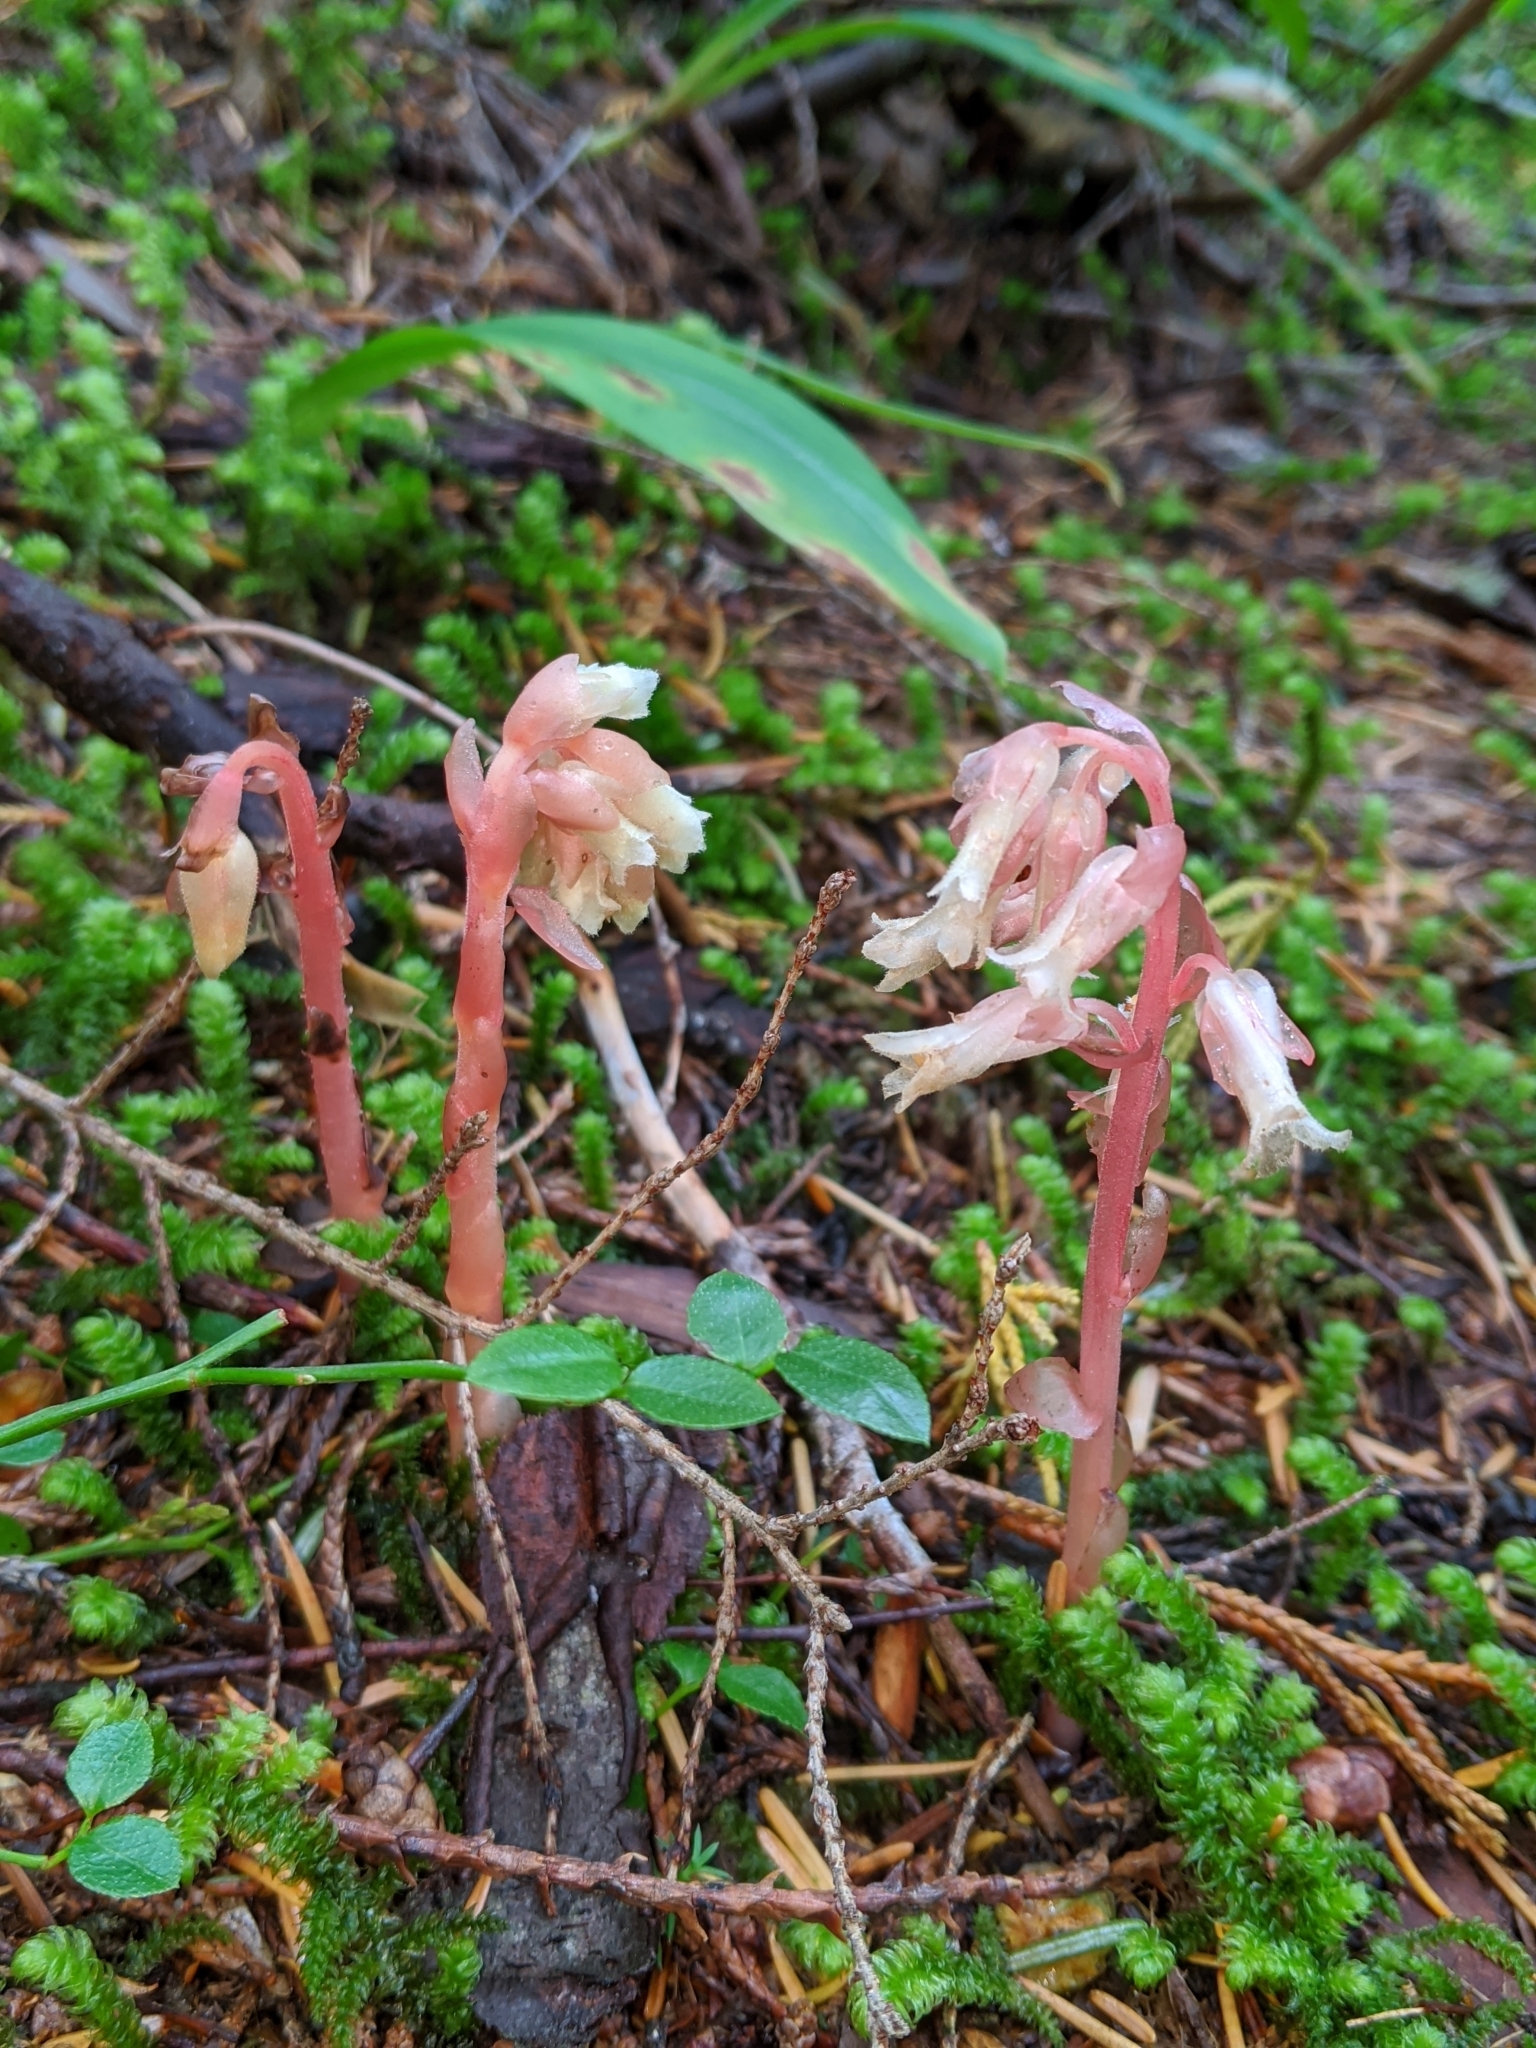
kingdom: Plantae
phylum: Tracheophyta
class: Magnoliopsida
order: Ericales
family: Ericaceae
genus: Hypopitys
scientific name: Hypopitys monotropa
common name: Yellow bird's-nest
